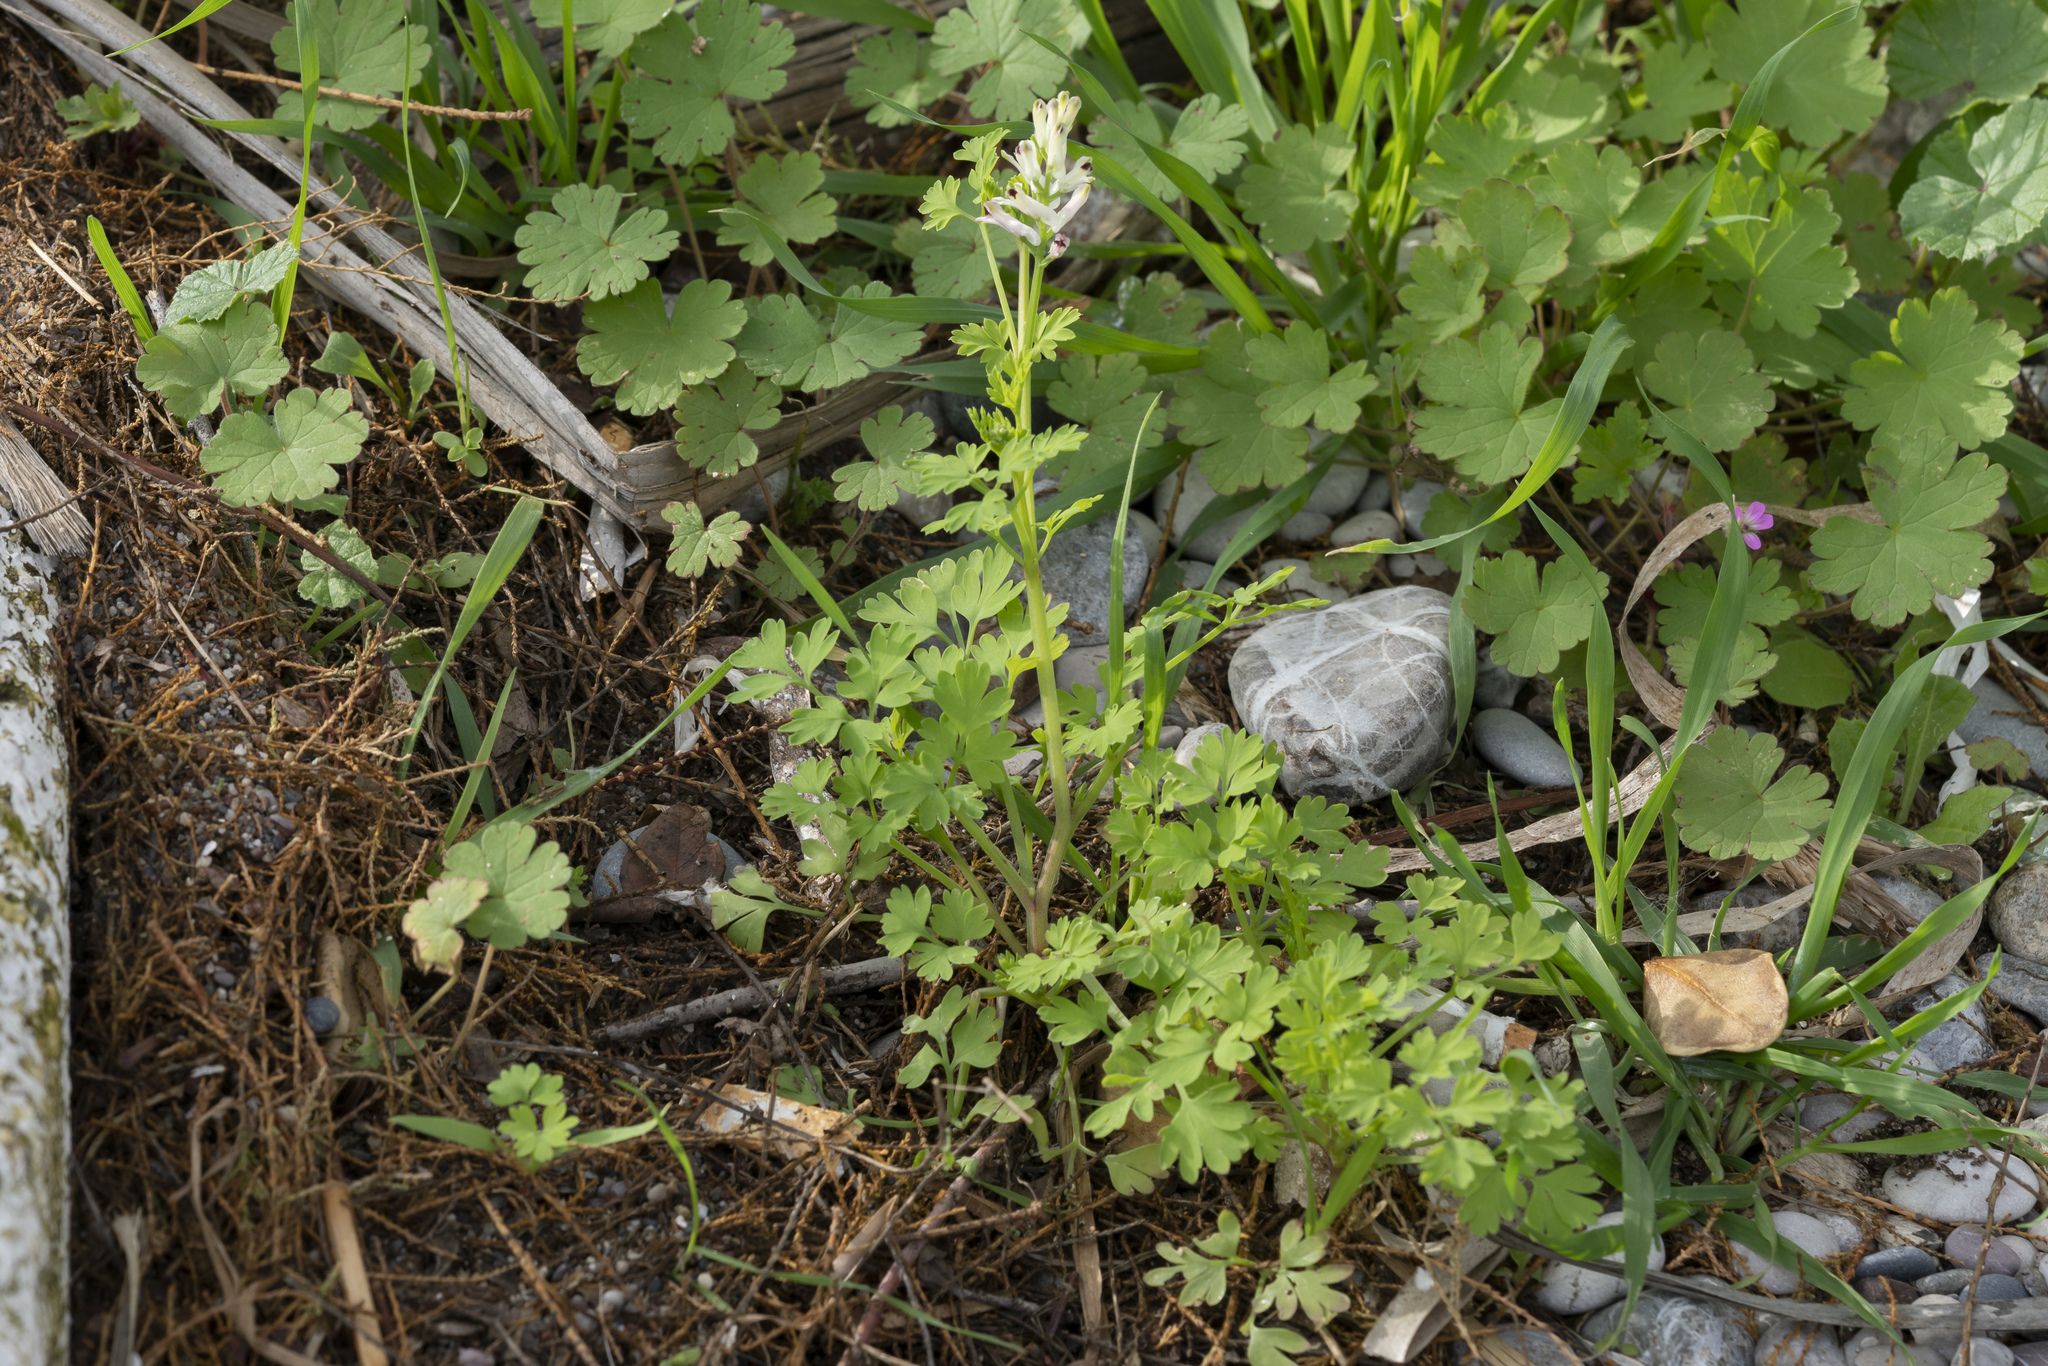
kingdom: Plantae
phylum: Tracheophyta
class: Magnoliopsida
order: Ranunculales
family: Papaveraceae
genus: Fumaria
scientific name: Fumaria judaica
